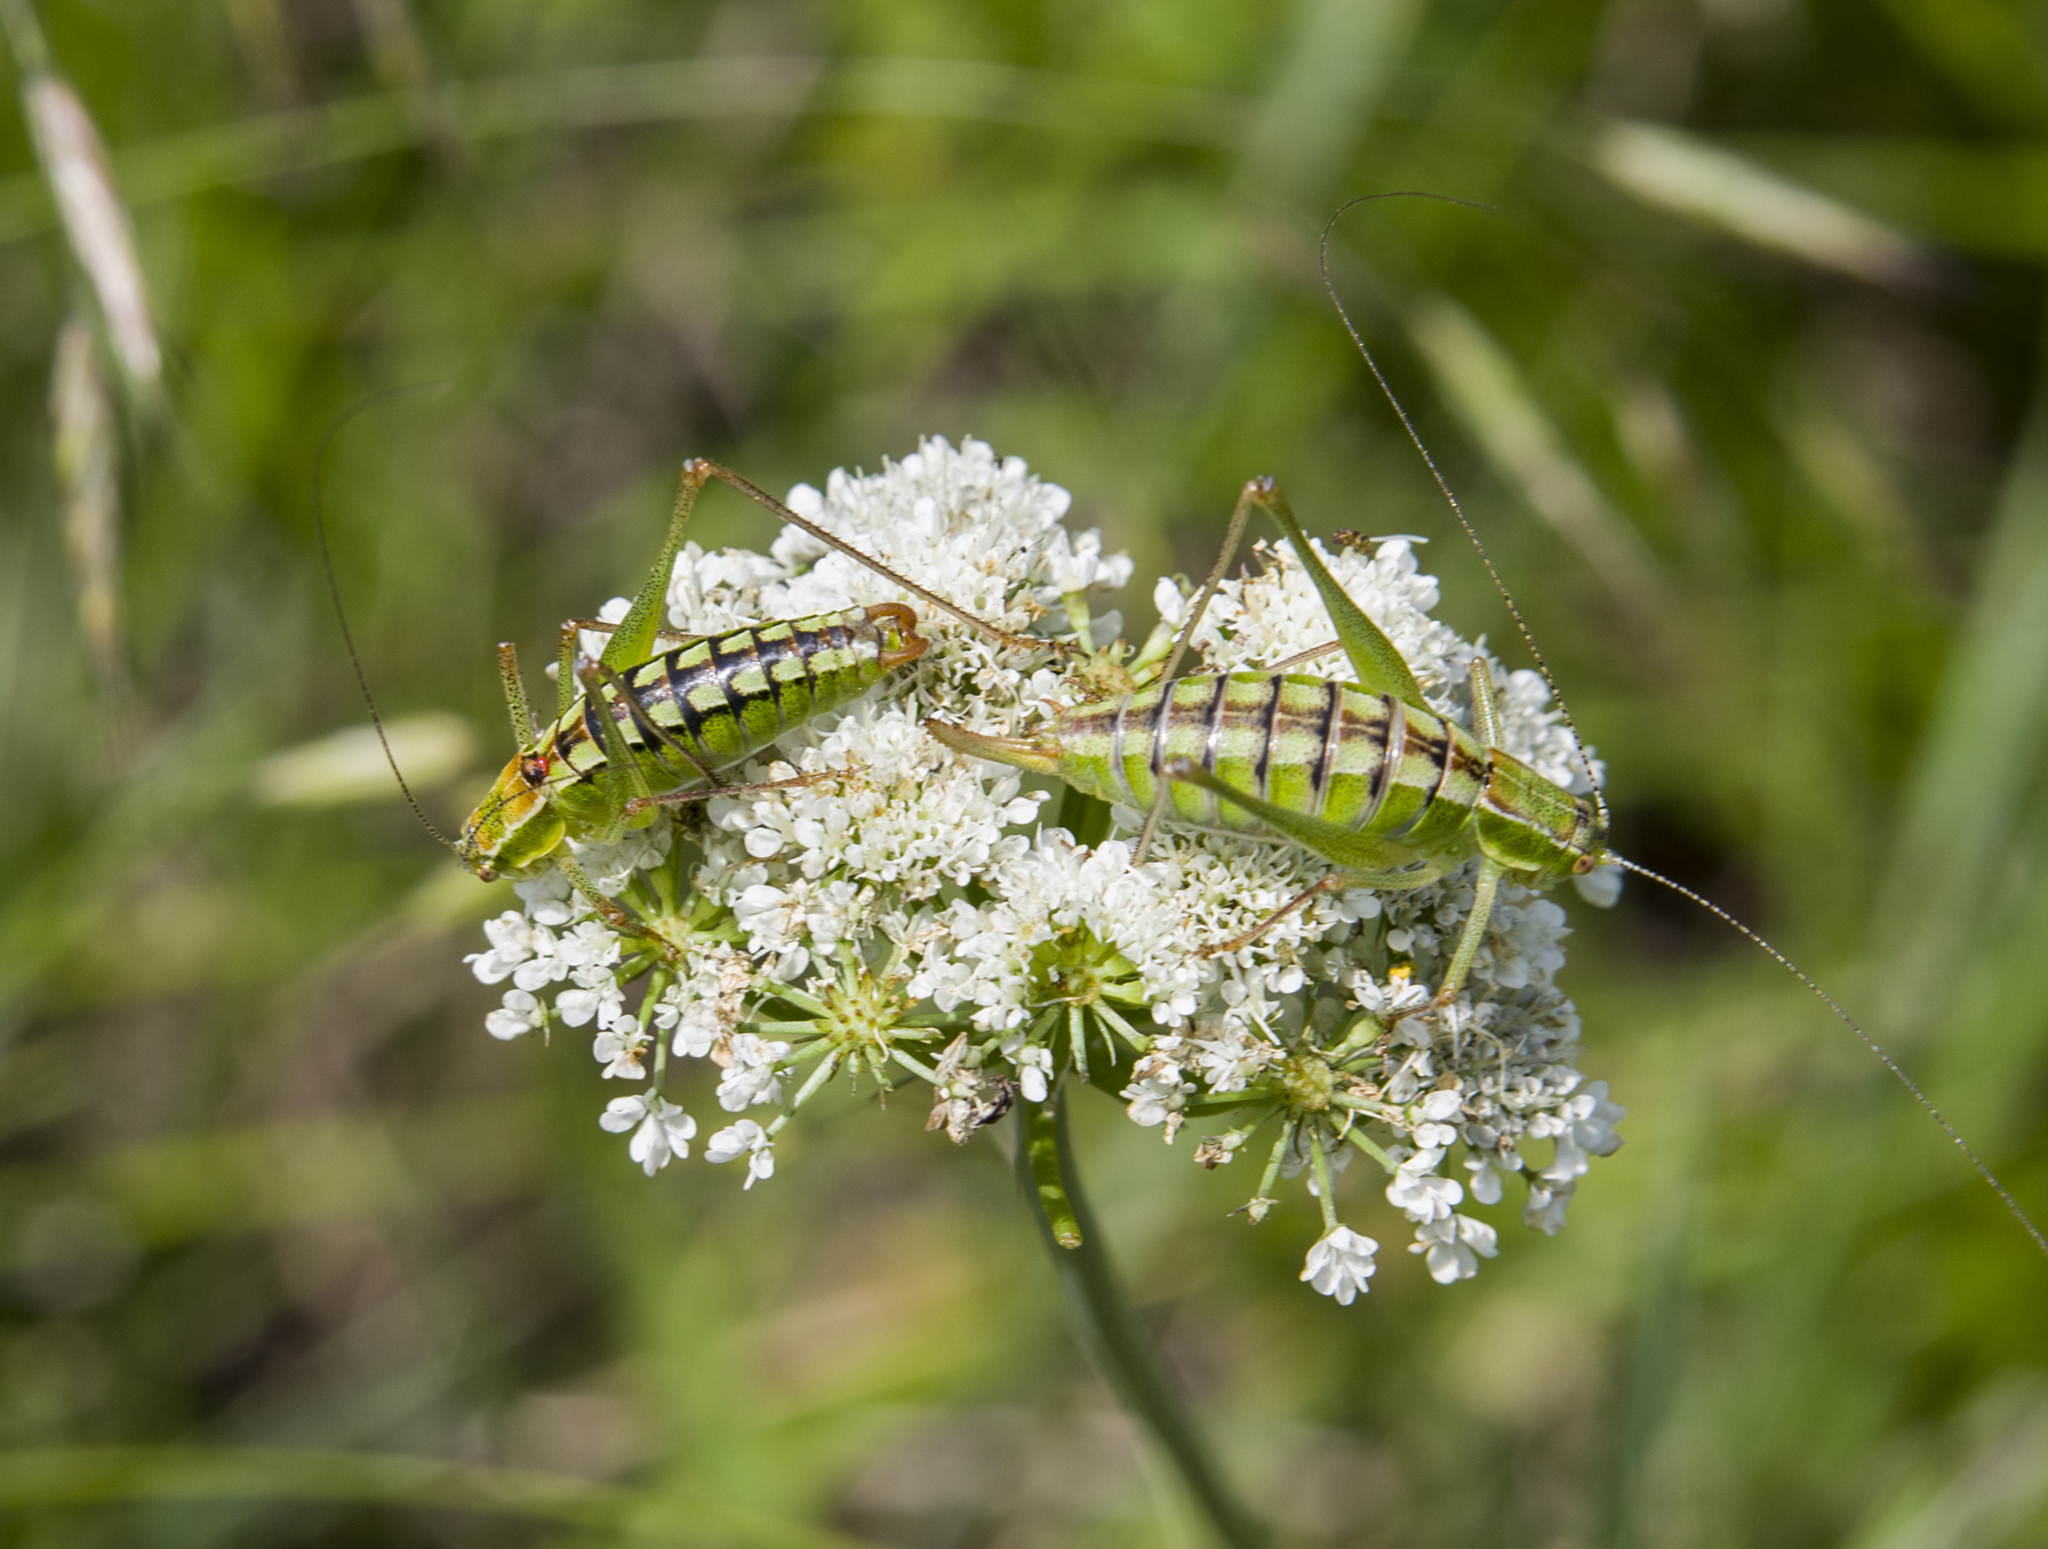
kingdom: Animalia
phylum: Arthropoda
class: Insecta
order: Orthoptera
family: Tettigoniidae
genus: Poecilimon
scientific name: Poecilimon fussii
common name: Fuss' bright bush-cricket
